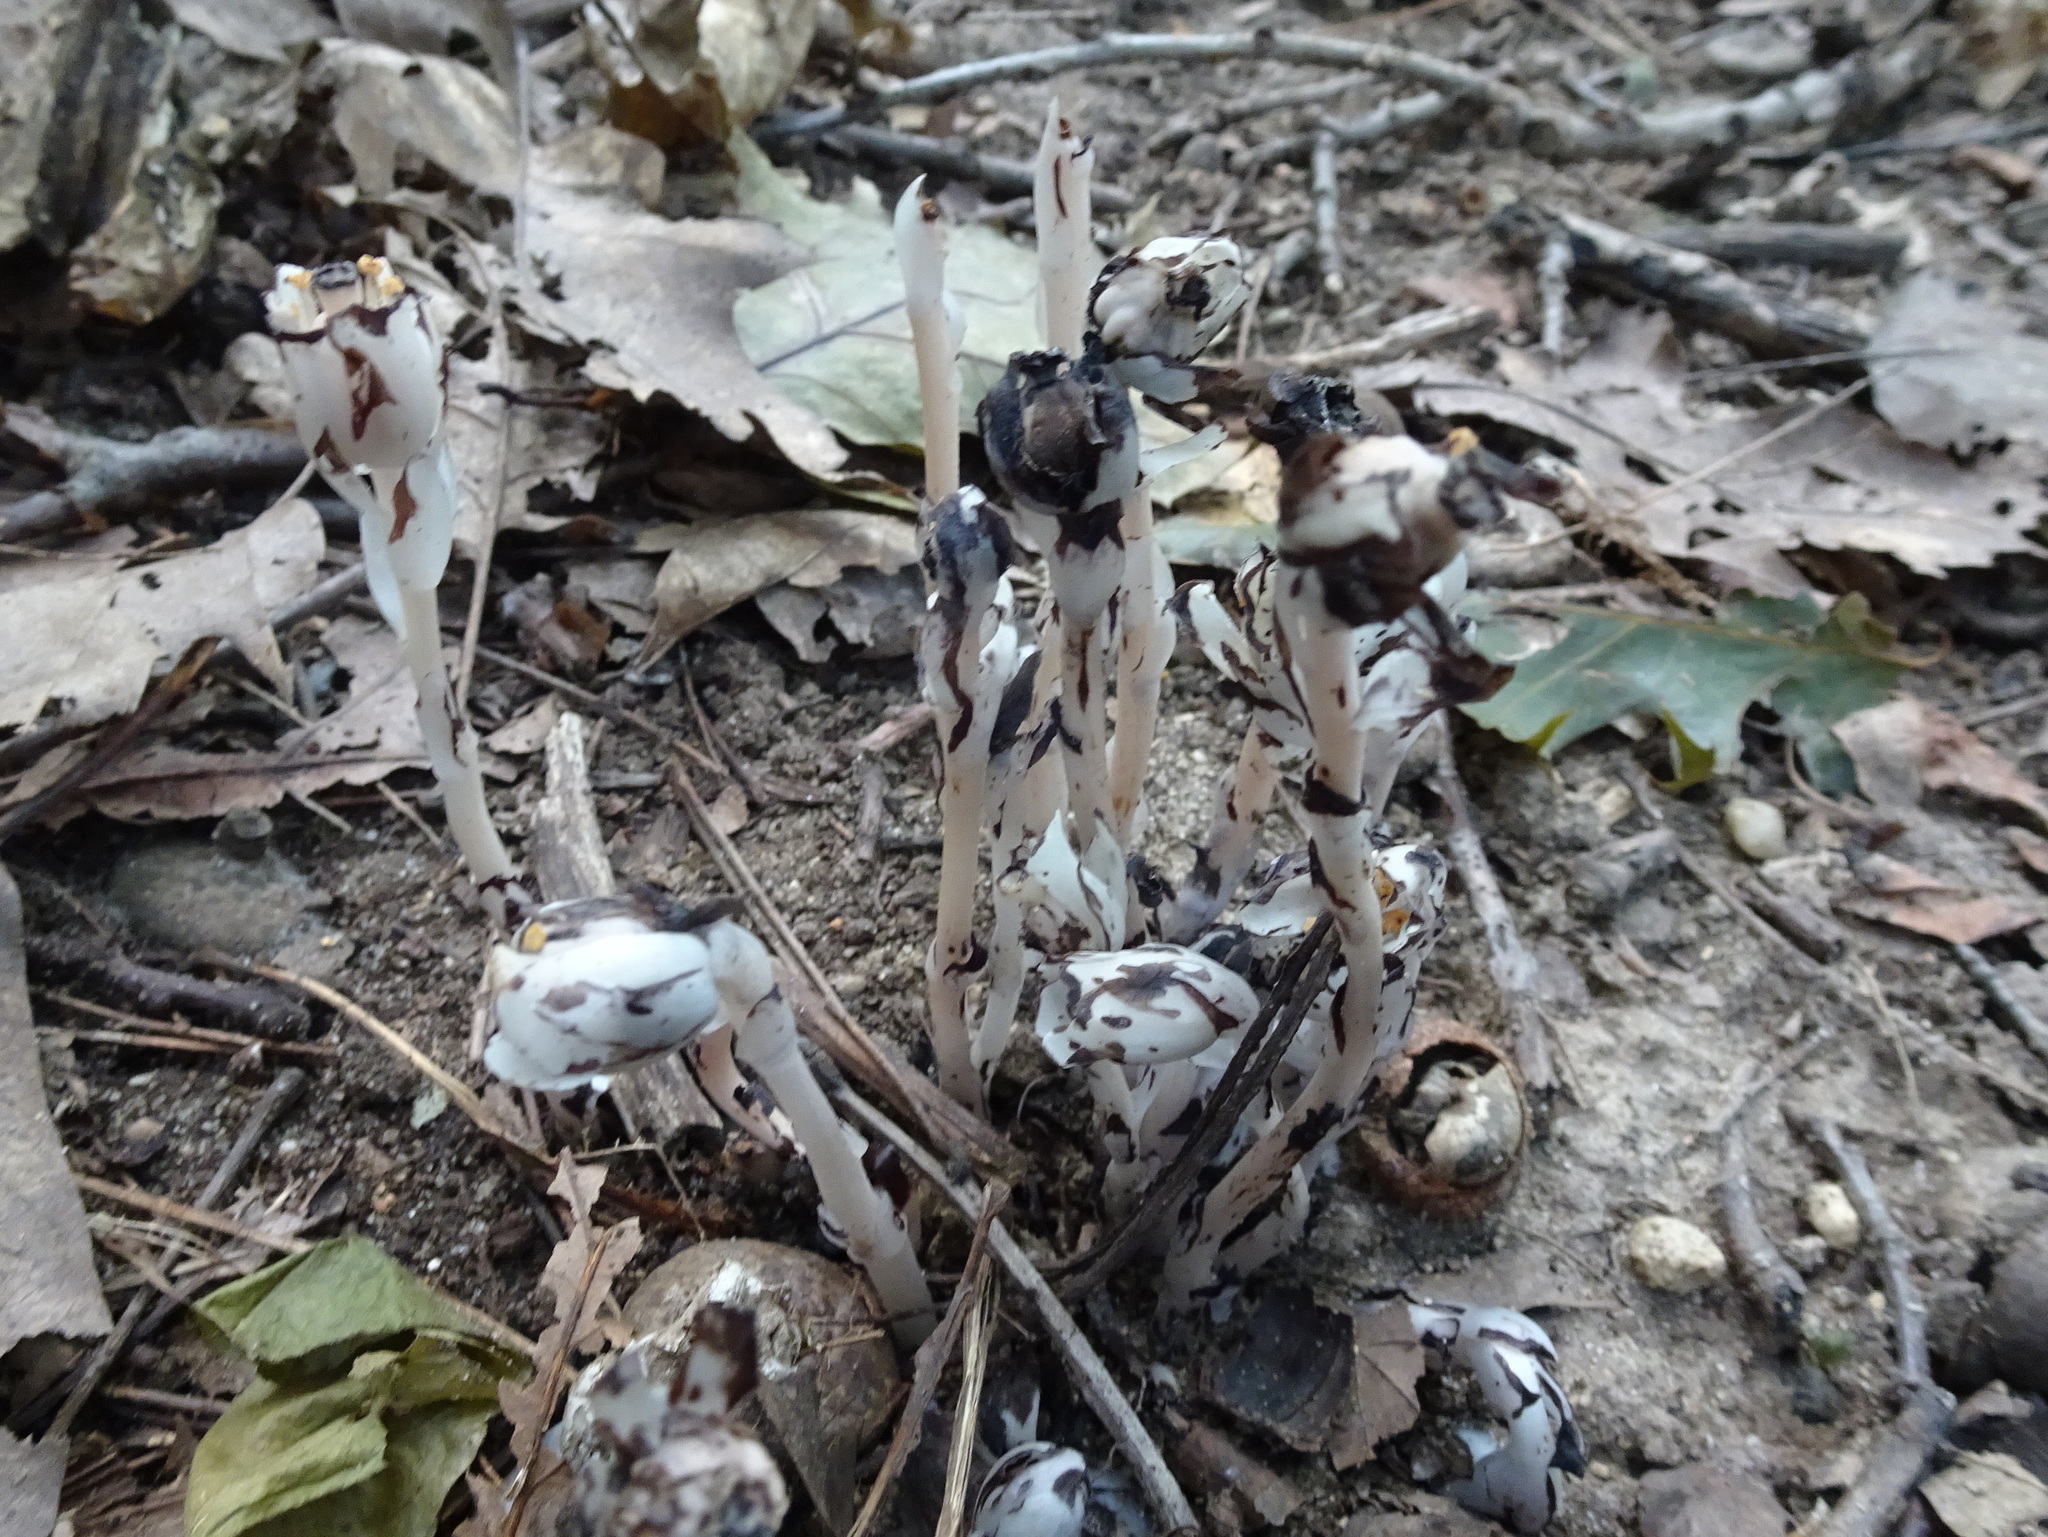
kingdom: Plantae
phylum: Tracheophyta
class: Magnoliopsida
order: Ericales
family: Ericaceae
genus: Monotropa
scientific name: Monotropa uniflora
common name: Convulsion root
